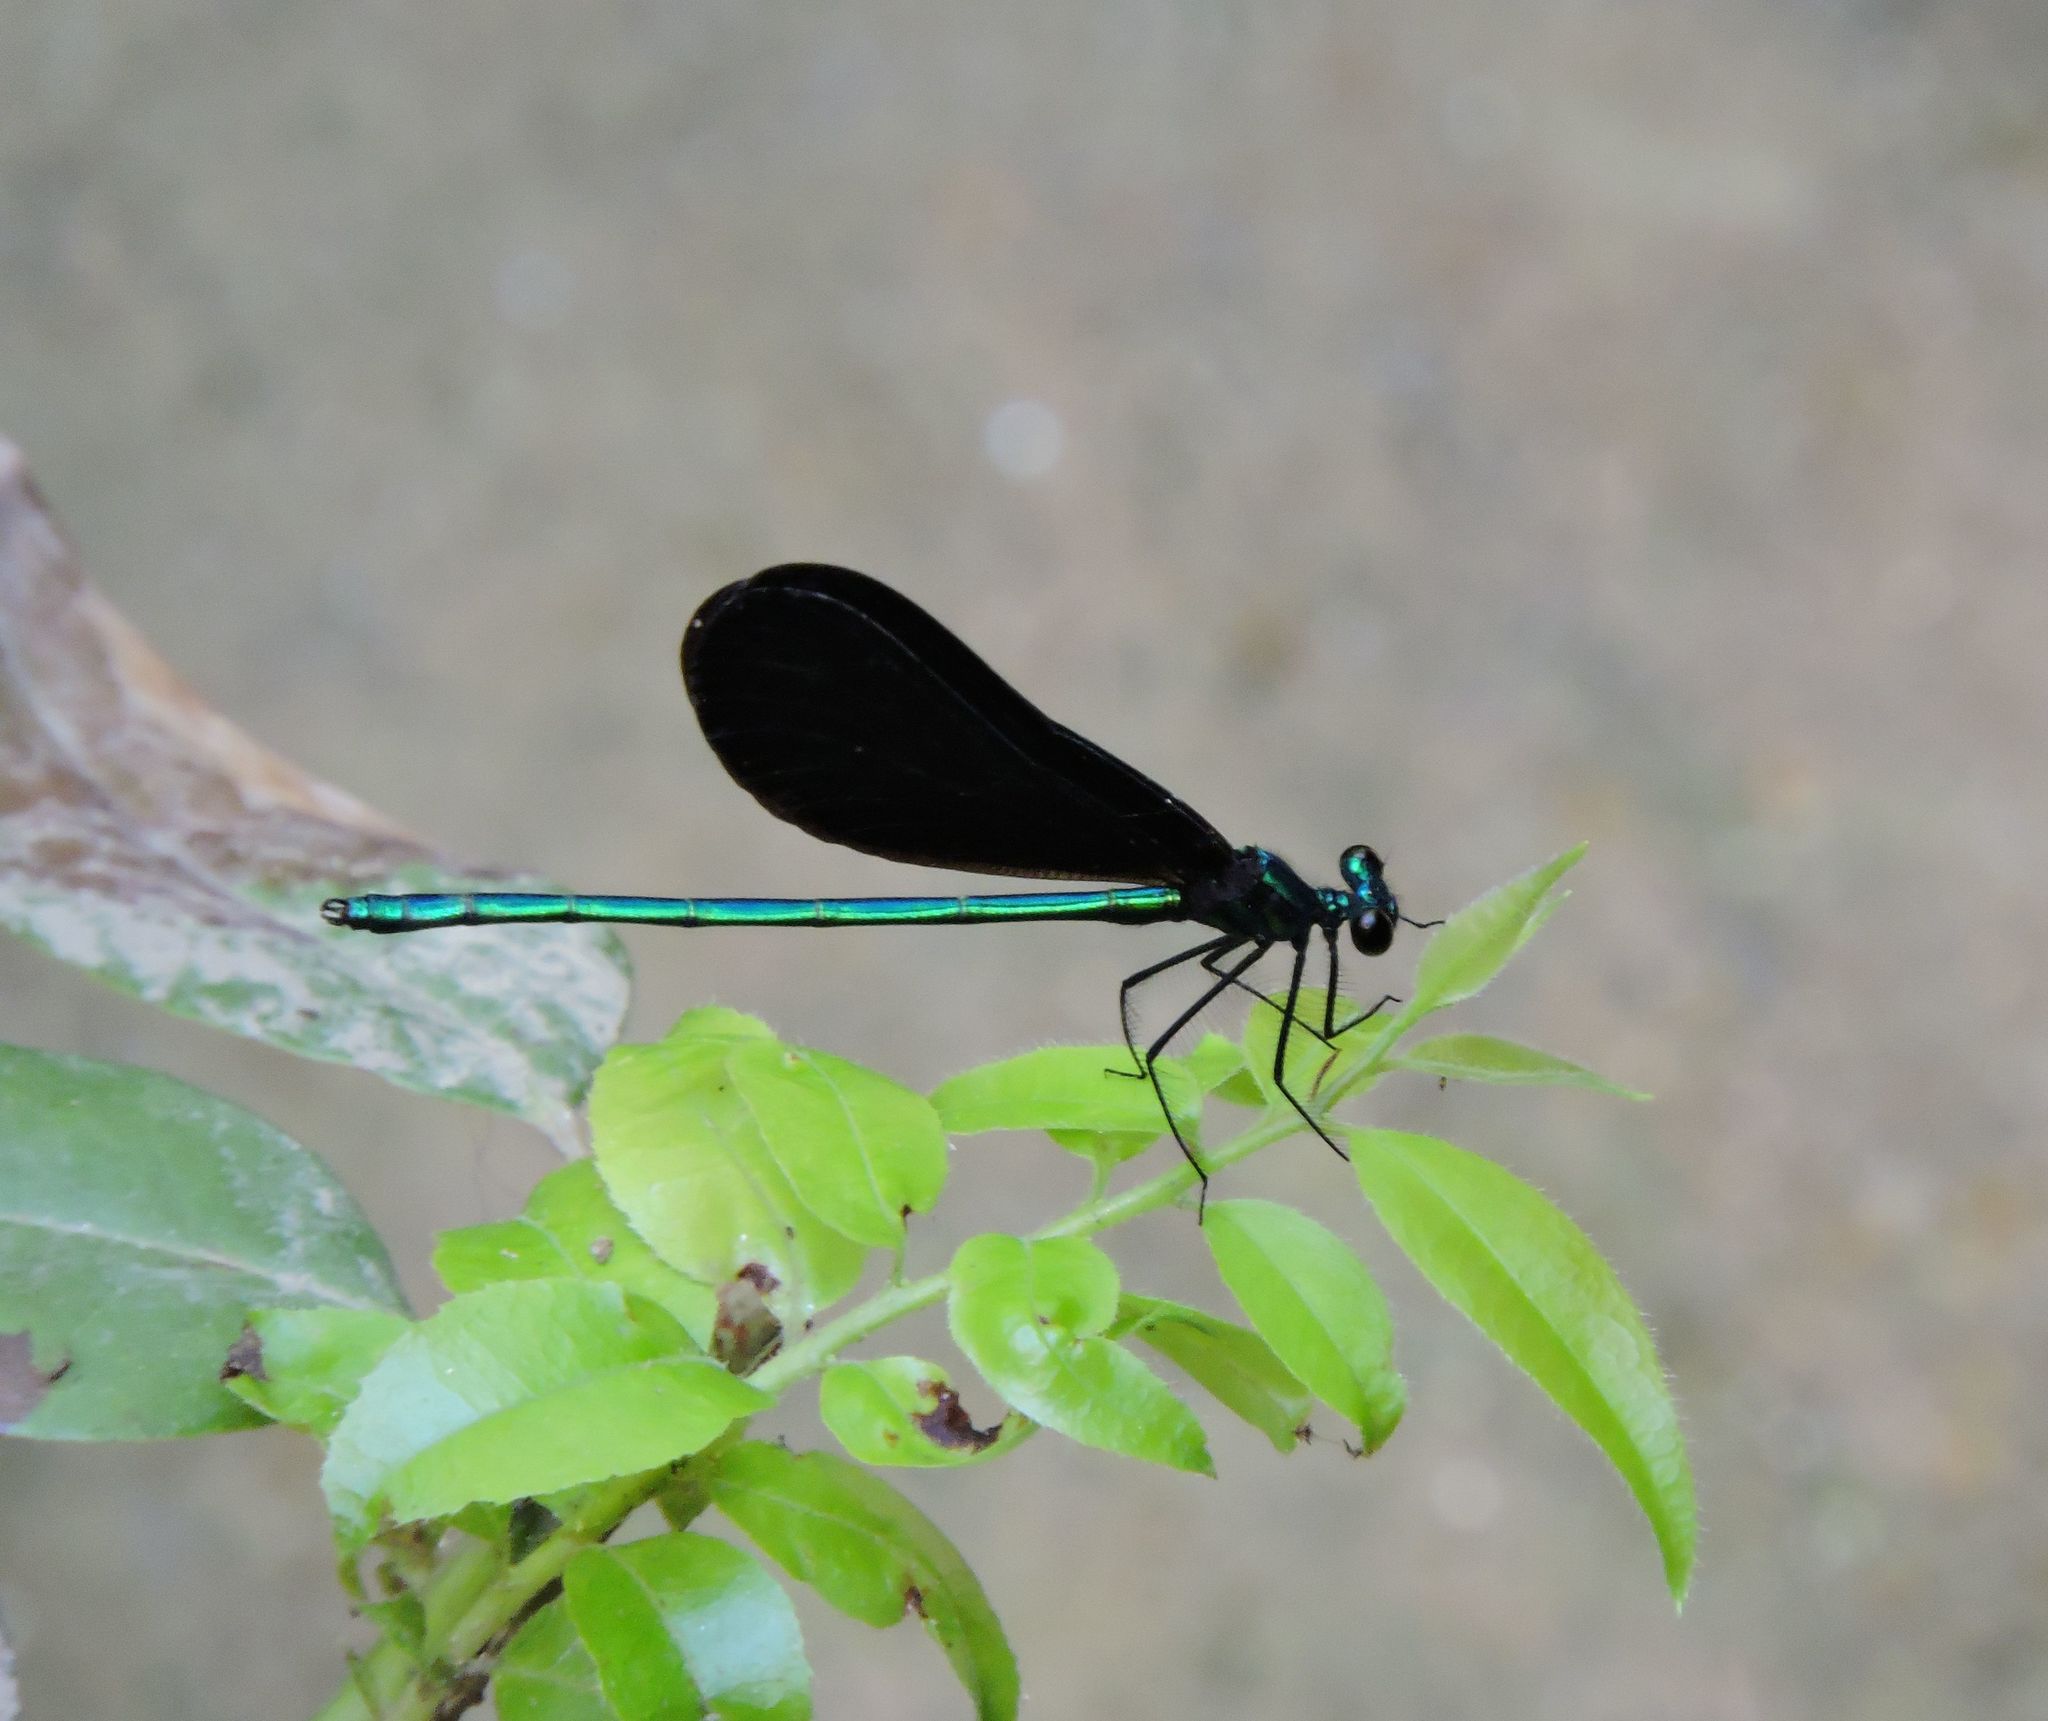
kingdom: Animalia
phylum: Arthropoda
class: Insecta
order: Odonata
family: Calopterygidae
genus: Calopteryx
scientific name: Calopteryx maculata
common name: Ebony jewelwing
